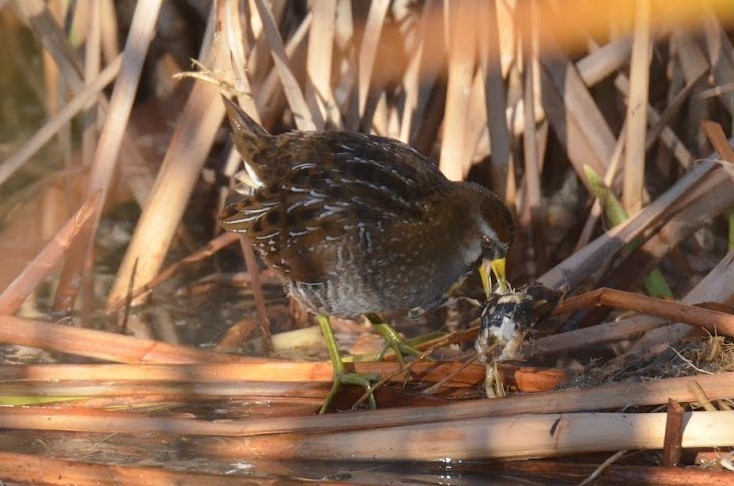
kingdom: Animalia
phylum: Chordata
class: Aves
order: Gruiformes
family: Rallidae
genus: Porzana
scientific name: Porzana carolina
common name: Sora
